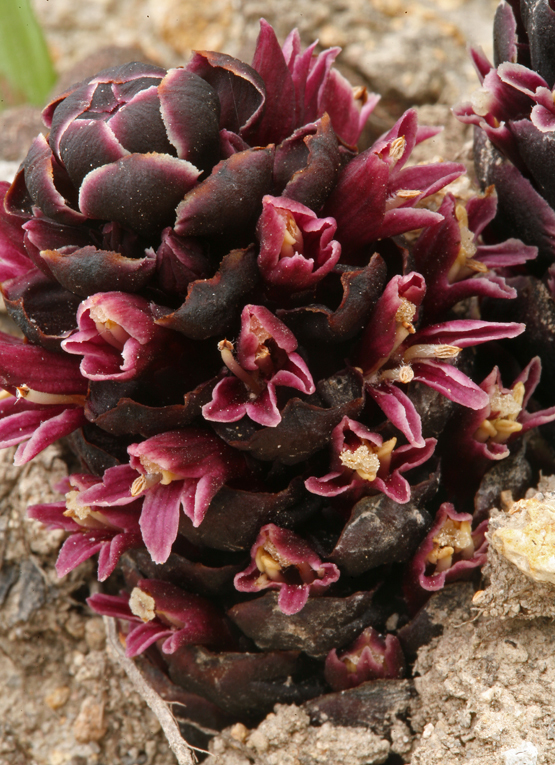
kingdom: Plantae
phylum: Tracheophyta
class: Magnoliopsida
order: Lamiales
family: Orobanchaceae
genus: Kopsiopsis
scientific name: Kopsiopsis strobilacea
